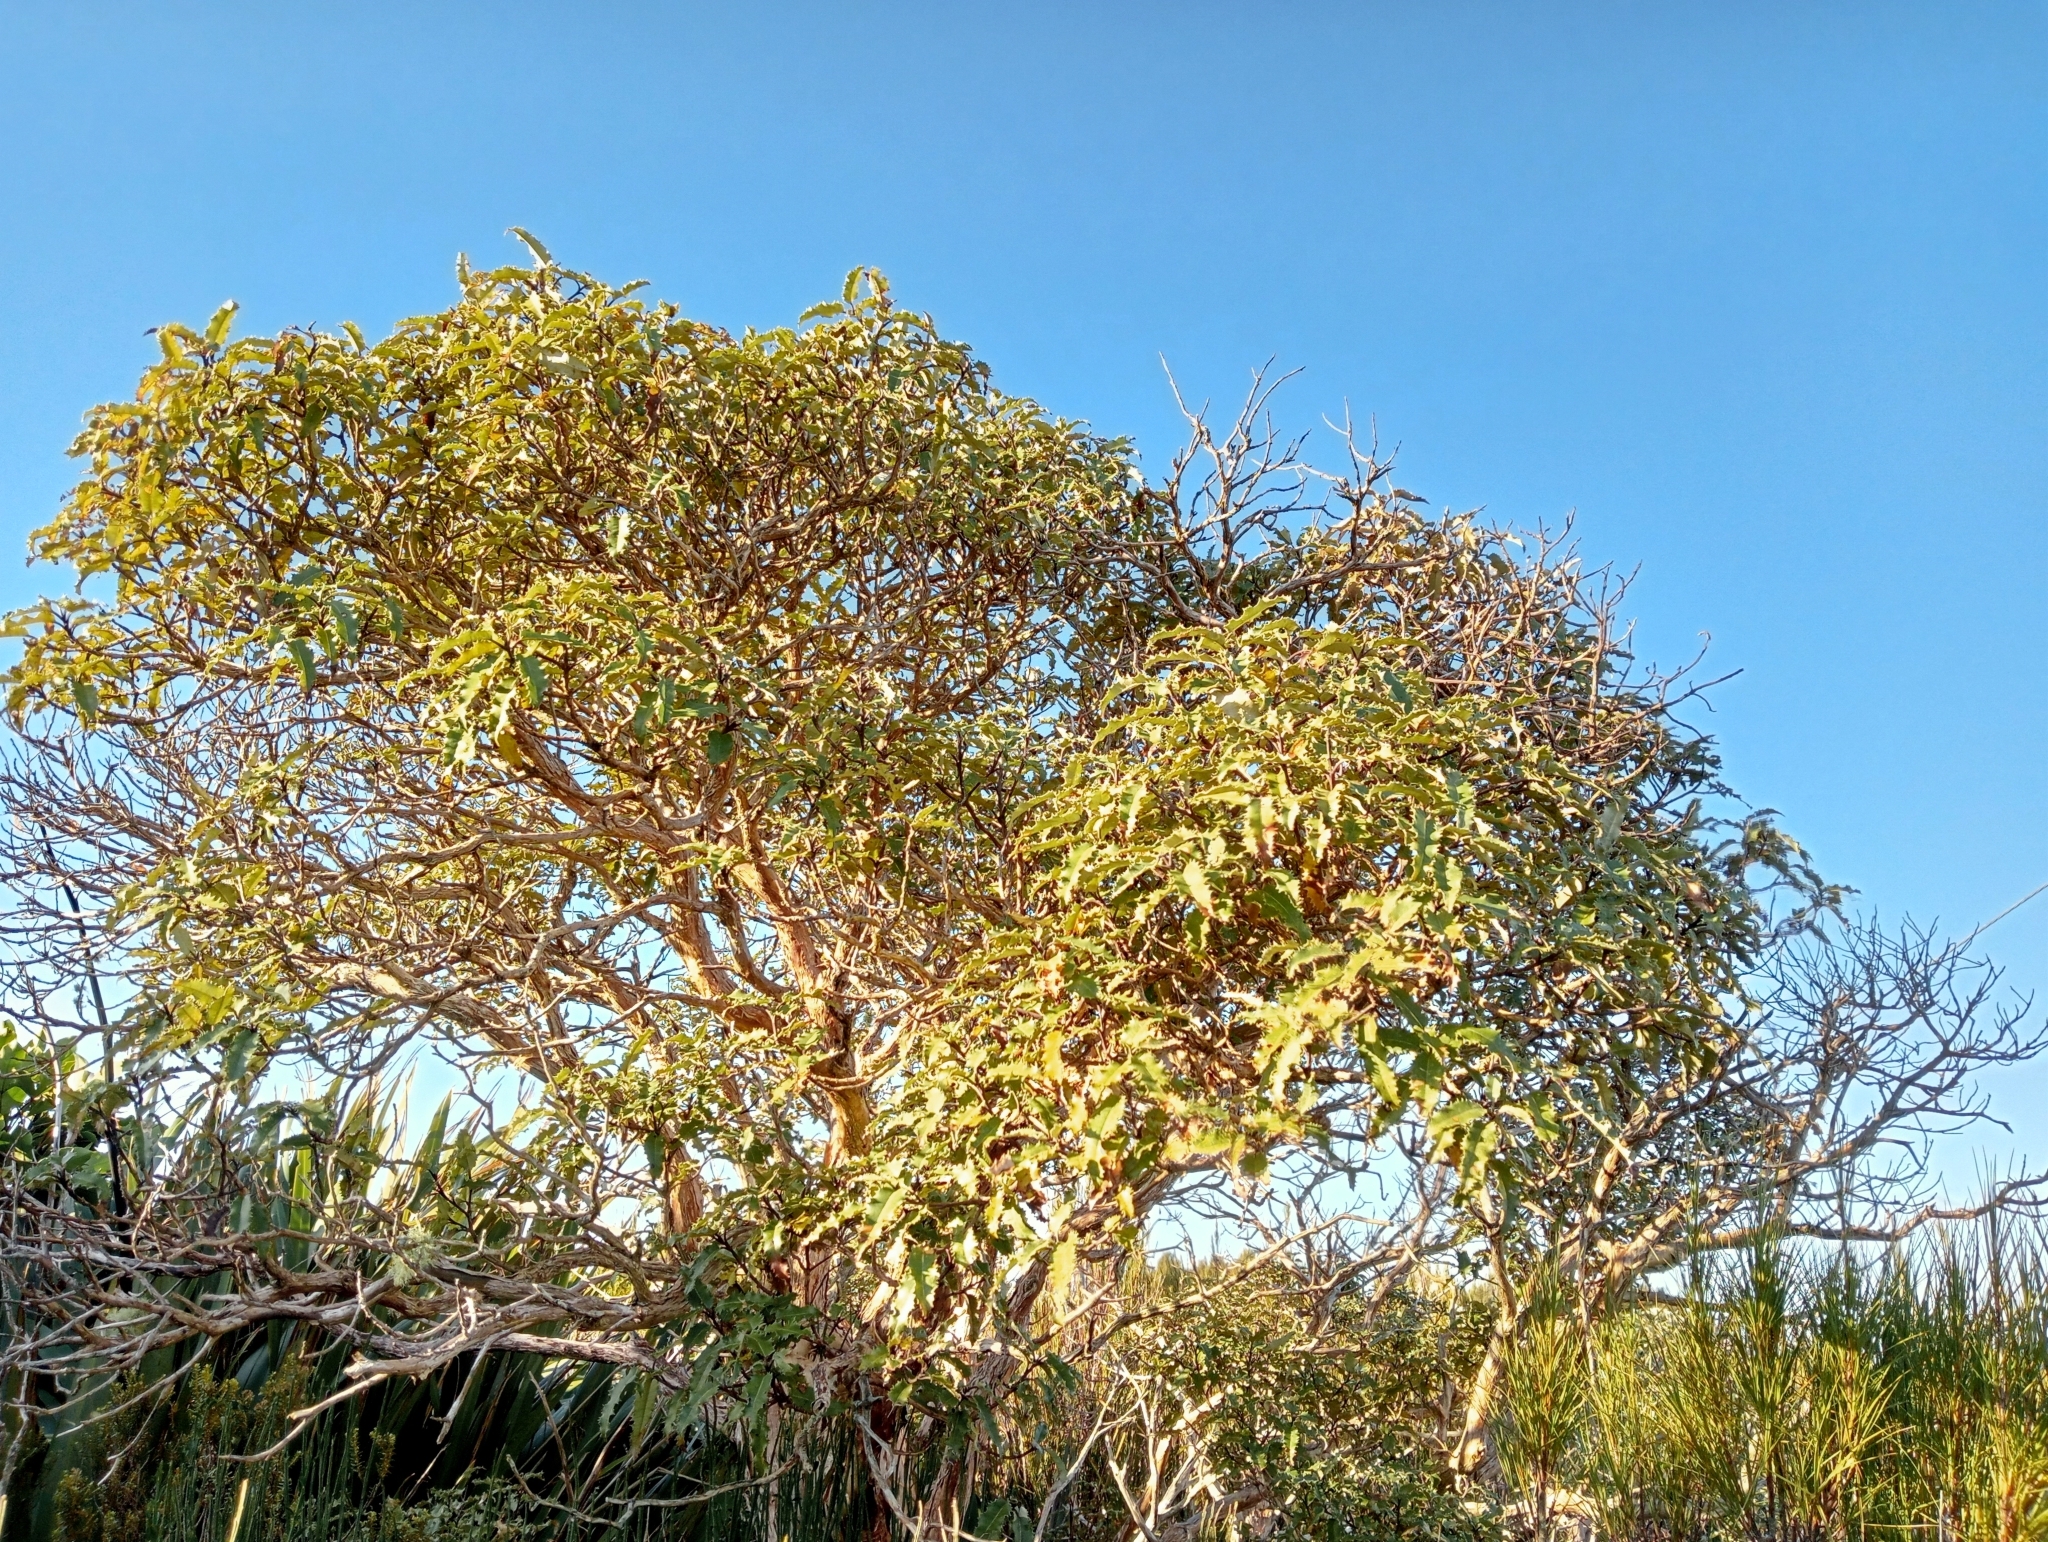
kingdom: Plantae
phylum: Tracheophyta
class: Magnoliopsida
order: Asterales
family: Asteraceae
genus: Olearia
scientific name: Olearia ilicifolia
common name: Maori-holly
